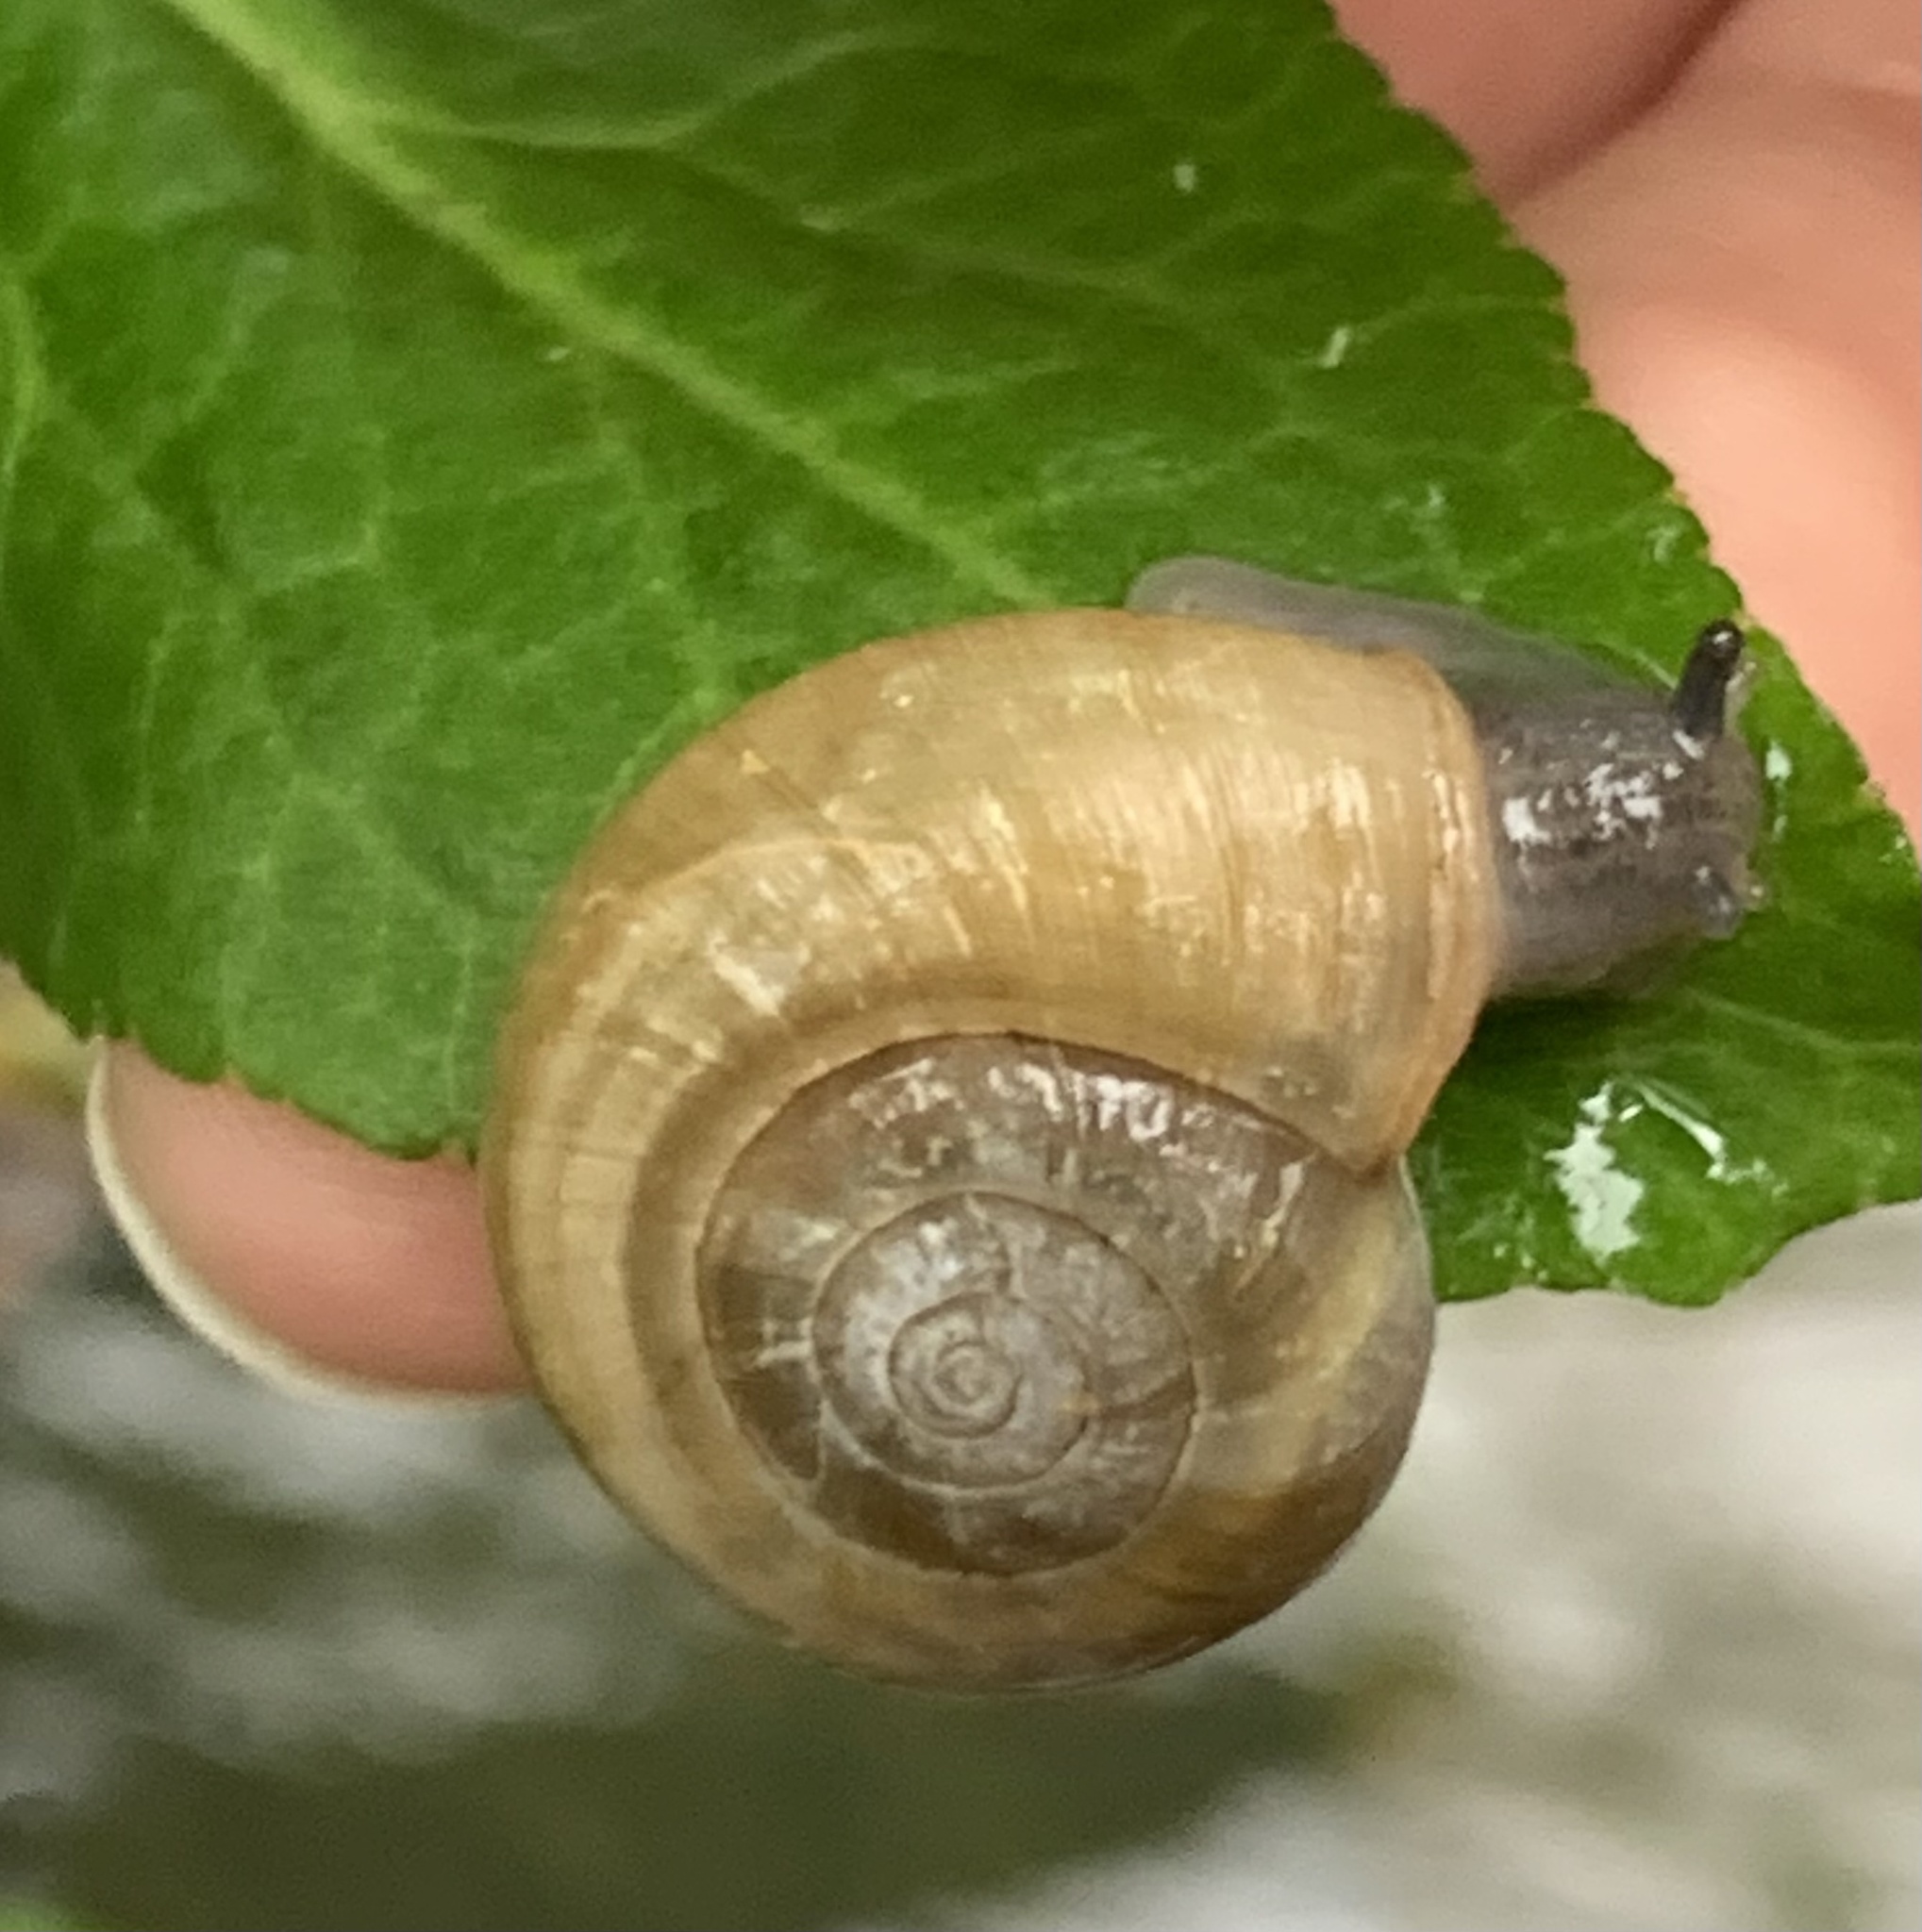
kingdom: Animalia
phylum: Mollusca
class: Gastropoda
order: Stylommatophora
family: Haplotrematidae
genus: Haplotrema
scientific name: Haplotrema concavum
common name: Gray-foot lancetooth
